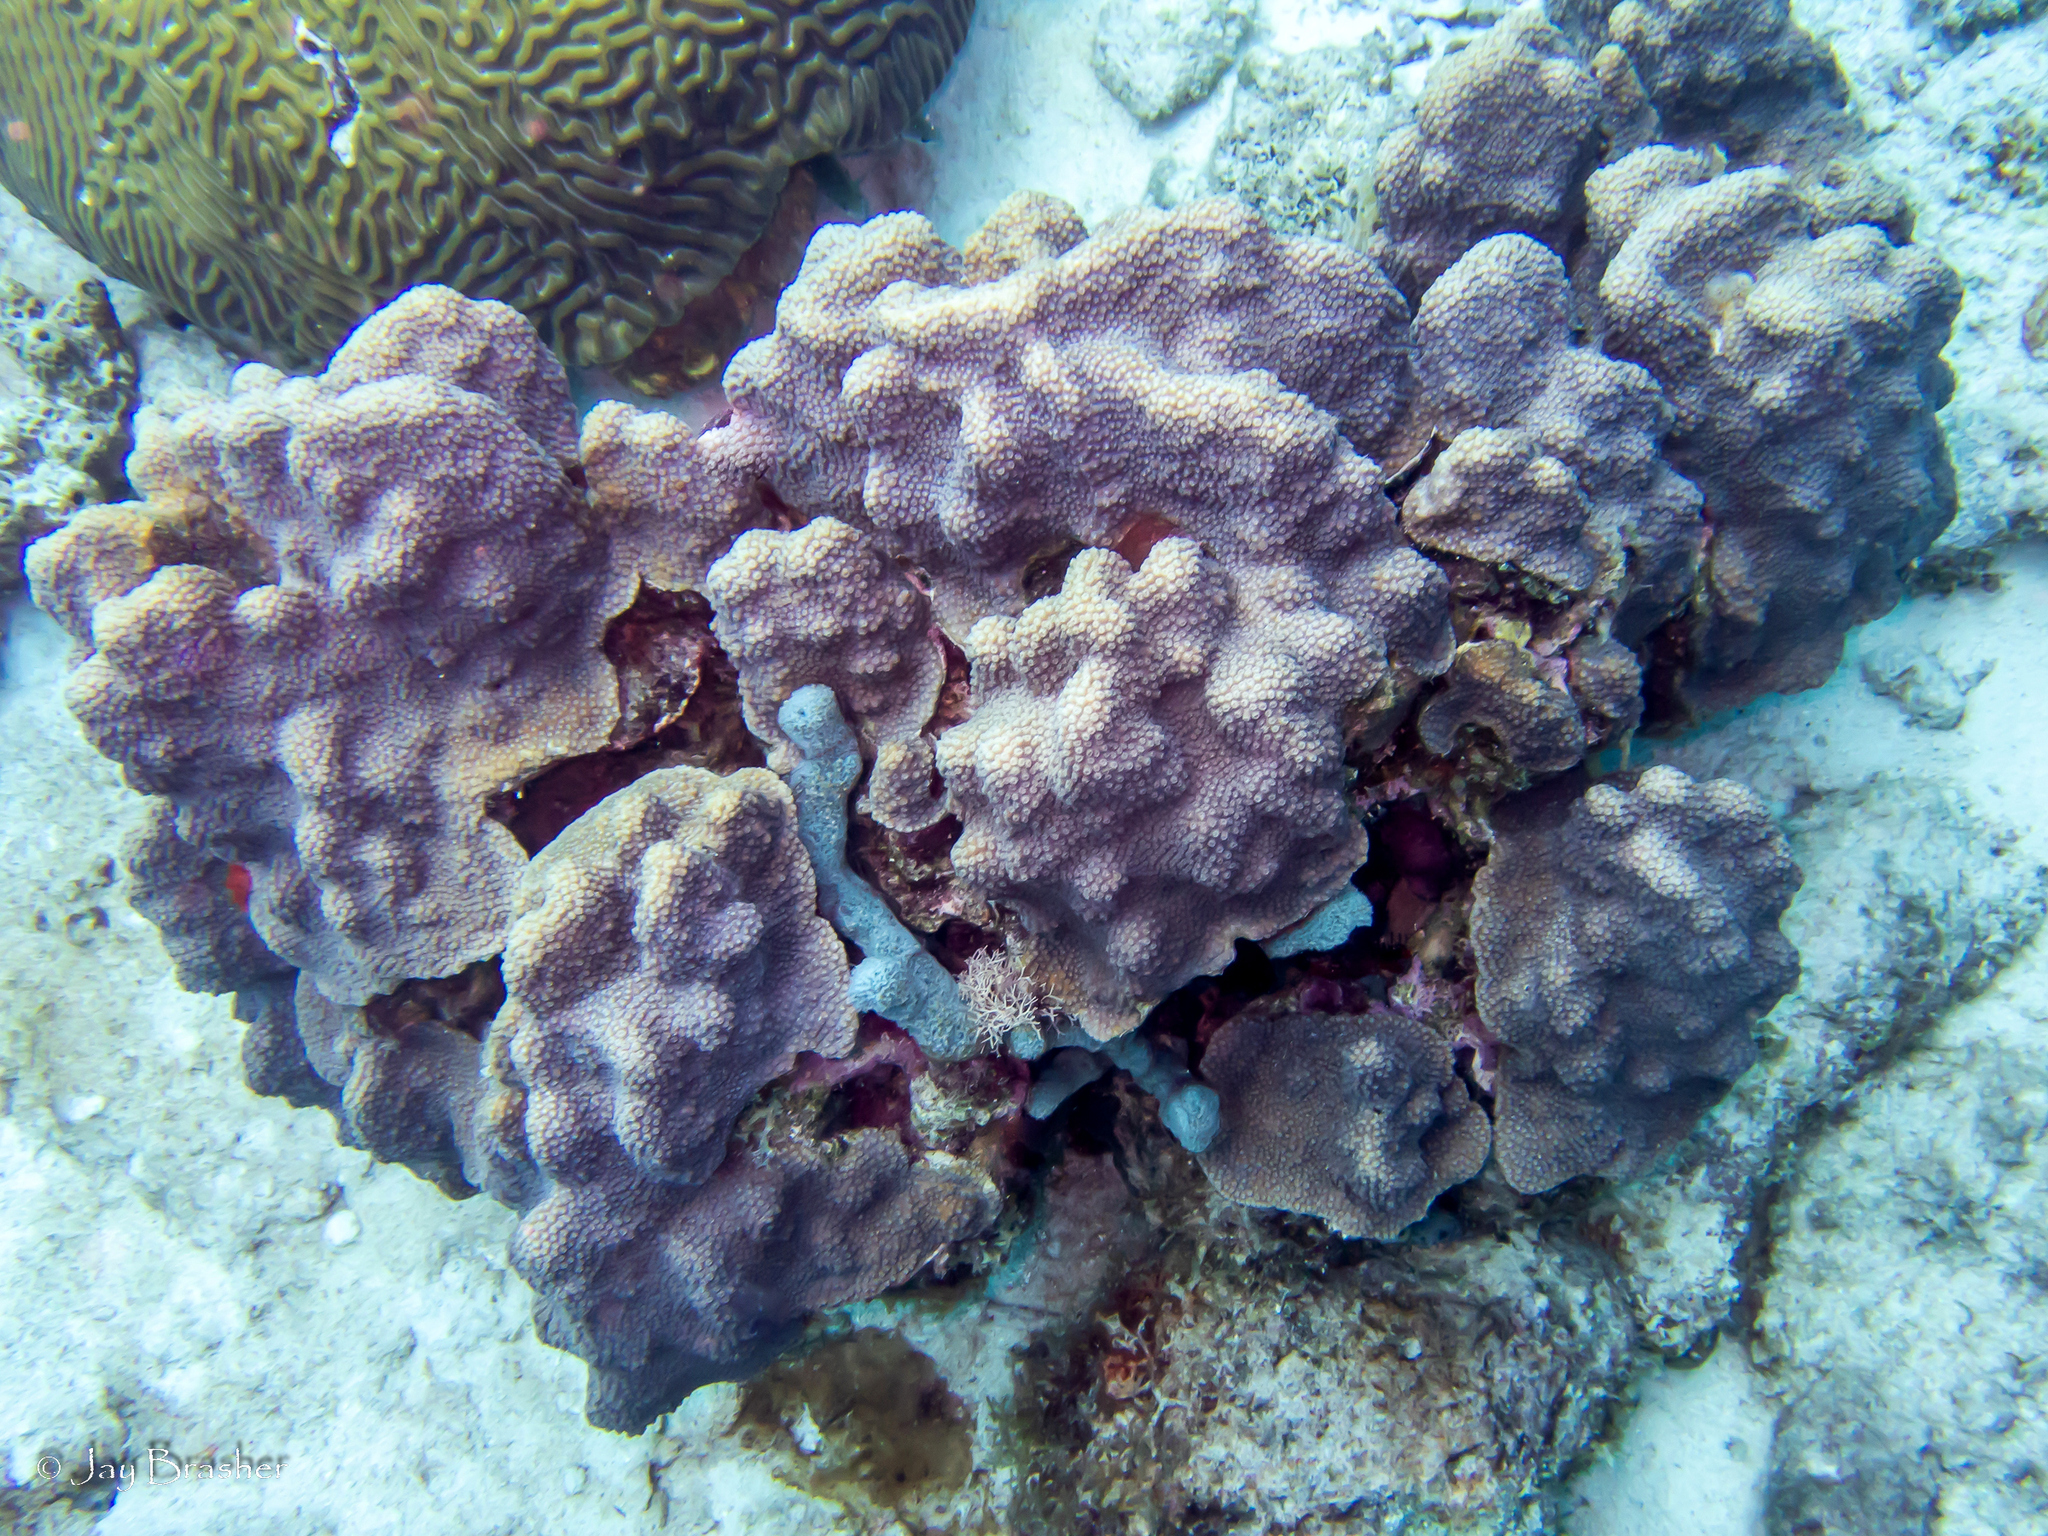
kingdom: Animalia
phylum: Porifera
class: Demospongiae
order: Haplosclerida
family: Niphatidae
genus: Niphates
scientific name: Niphates erecta
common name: Lavender rope sponge
